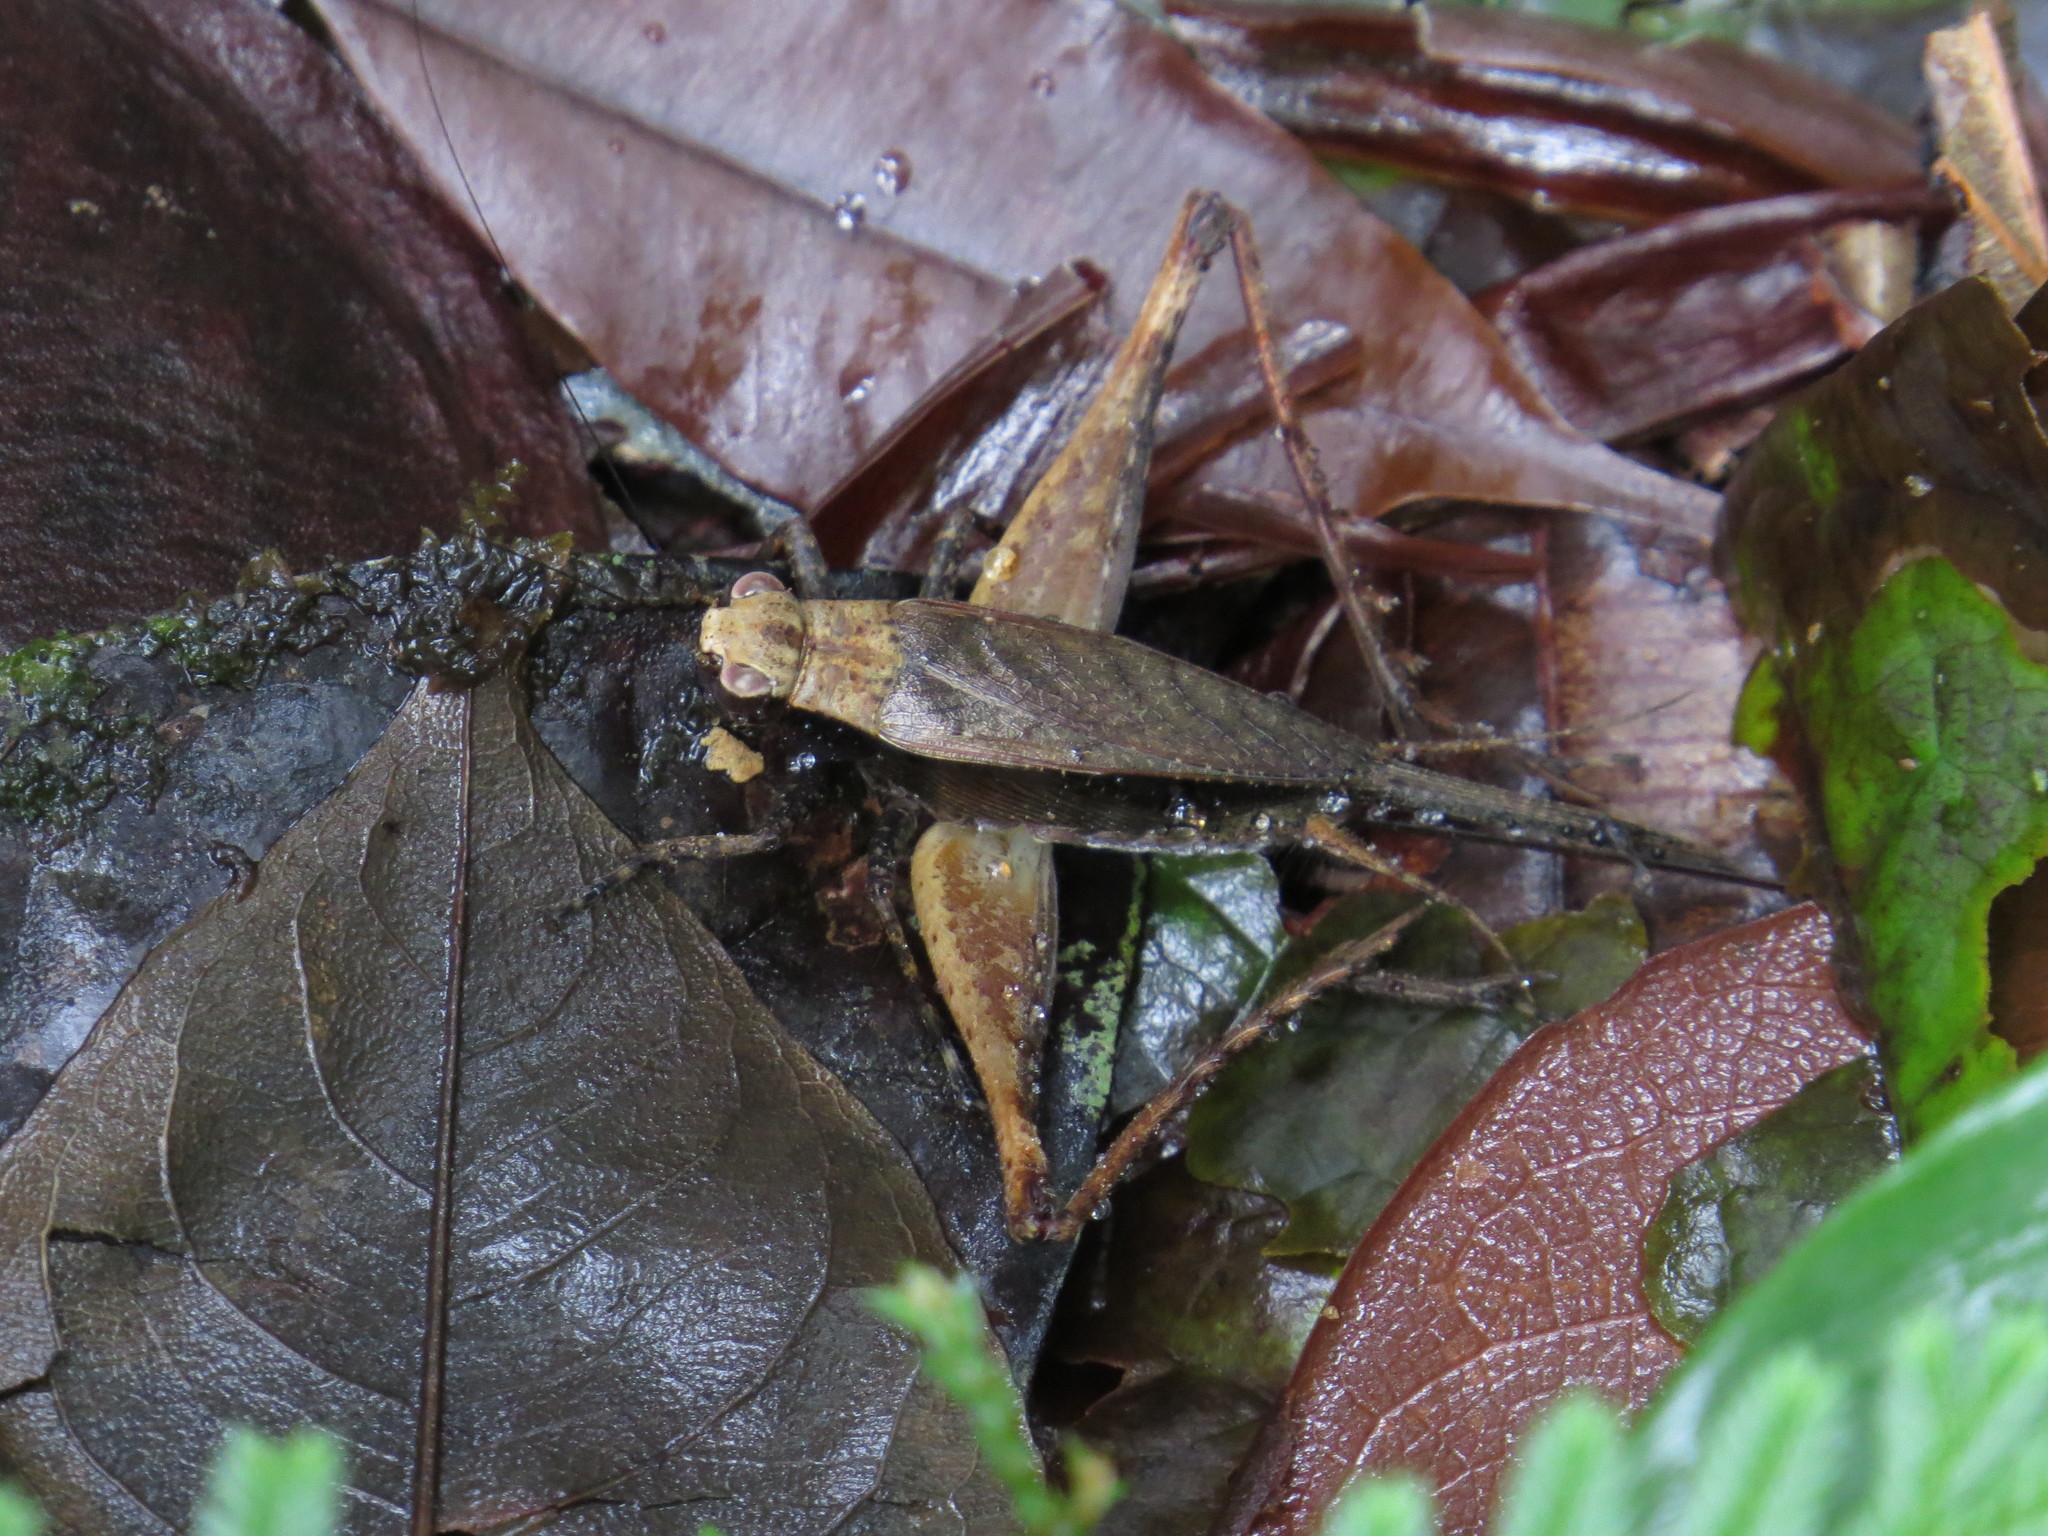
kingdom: Animalia
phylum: Arthropoda
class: Insecta
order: Orthoptera
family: Gryllidae
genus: Eneoptera
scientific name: Eneoptera guyanensis
